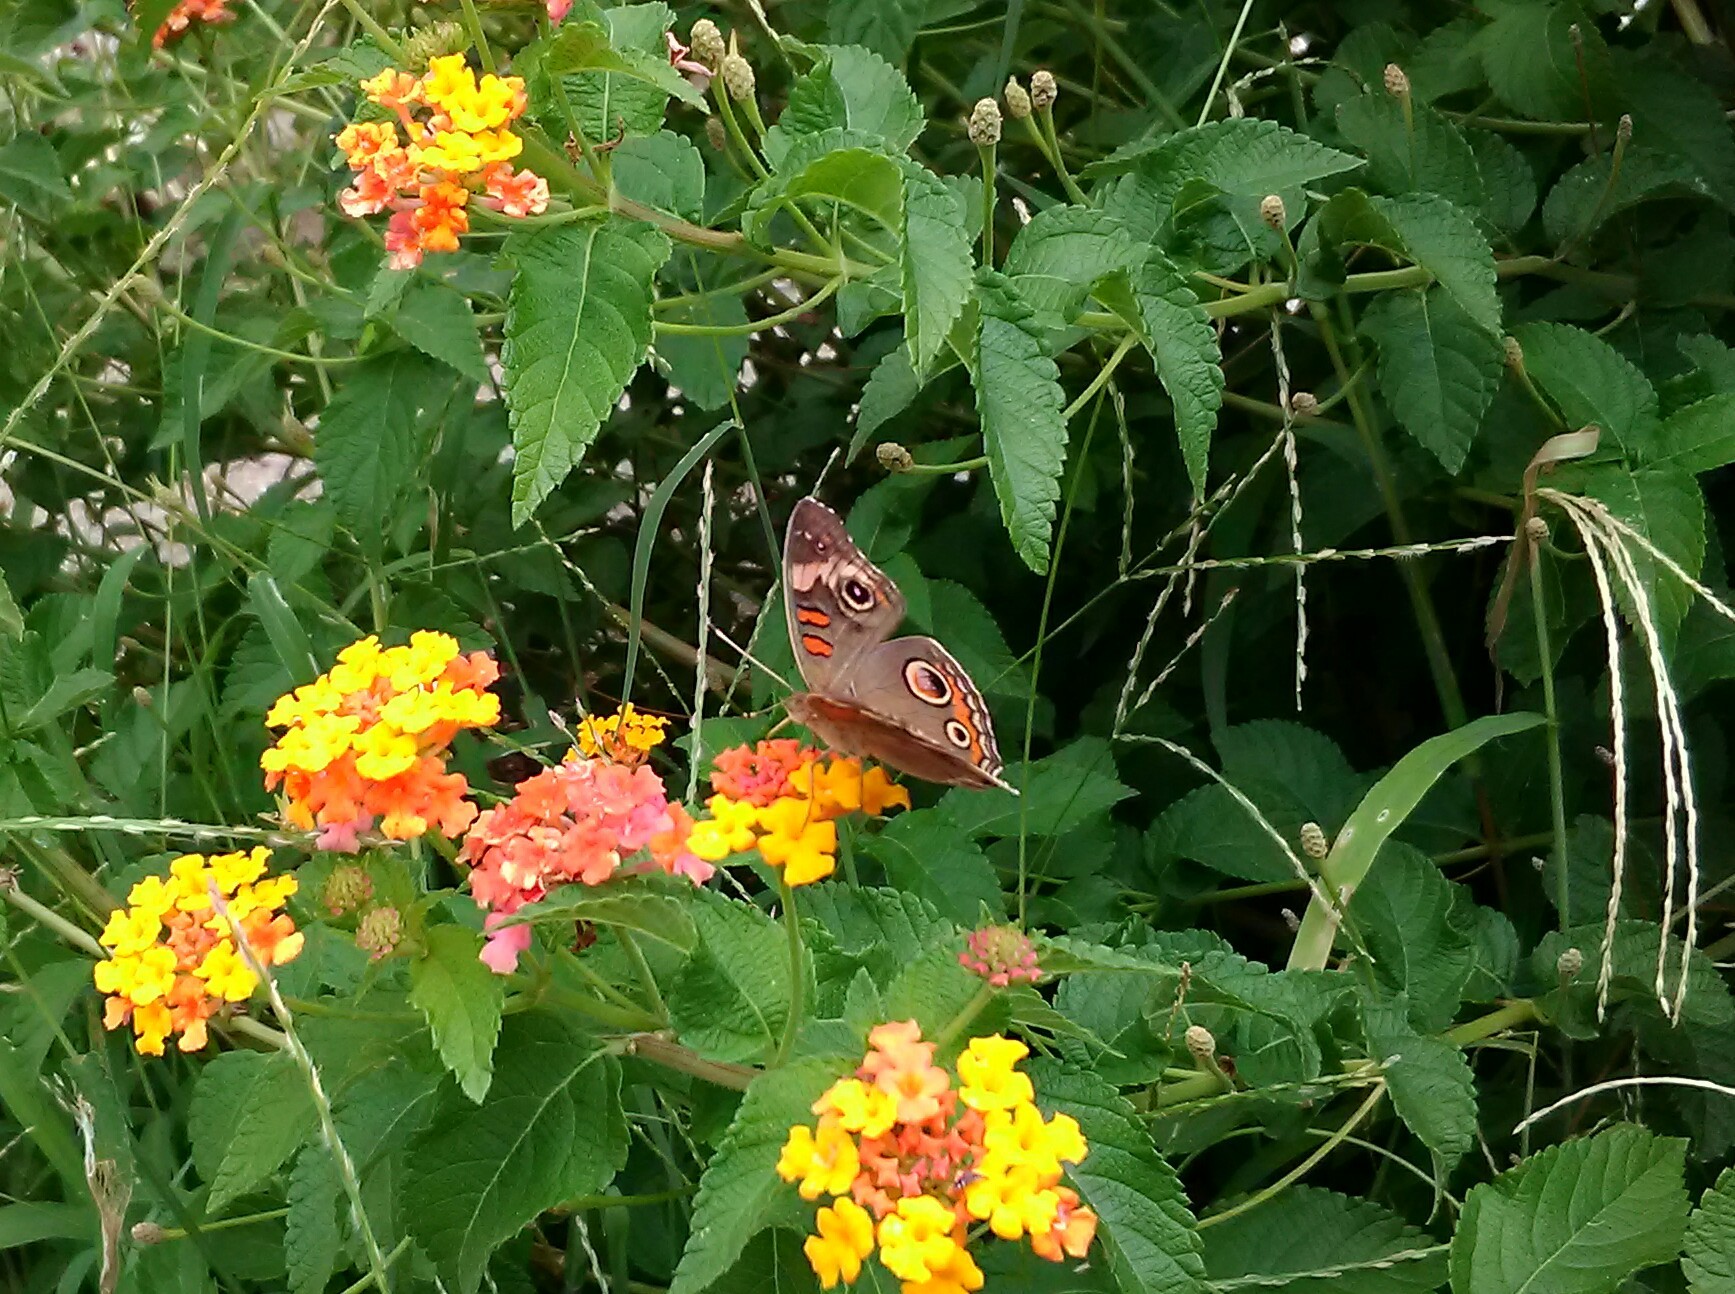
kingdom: Animalia
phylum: Arthropoda
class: Insecta
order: Lepidoptera
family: Nymphalidae
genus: Junonia
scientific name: Junonia coenia
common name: Common buckeye
